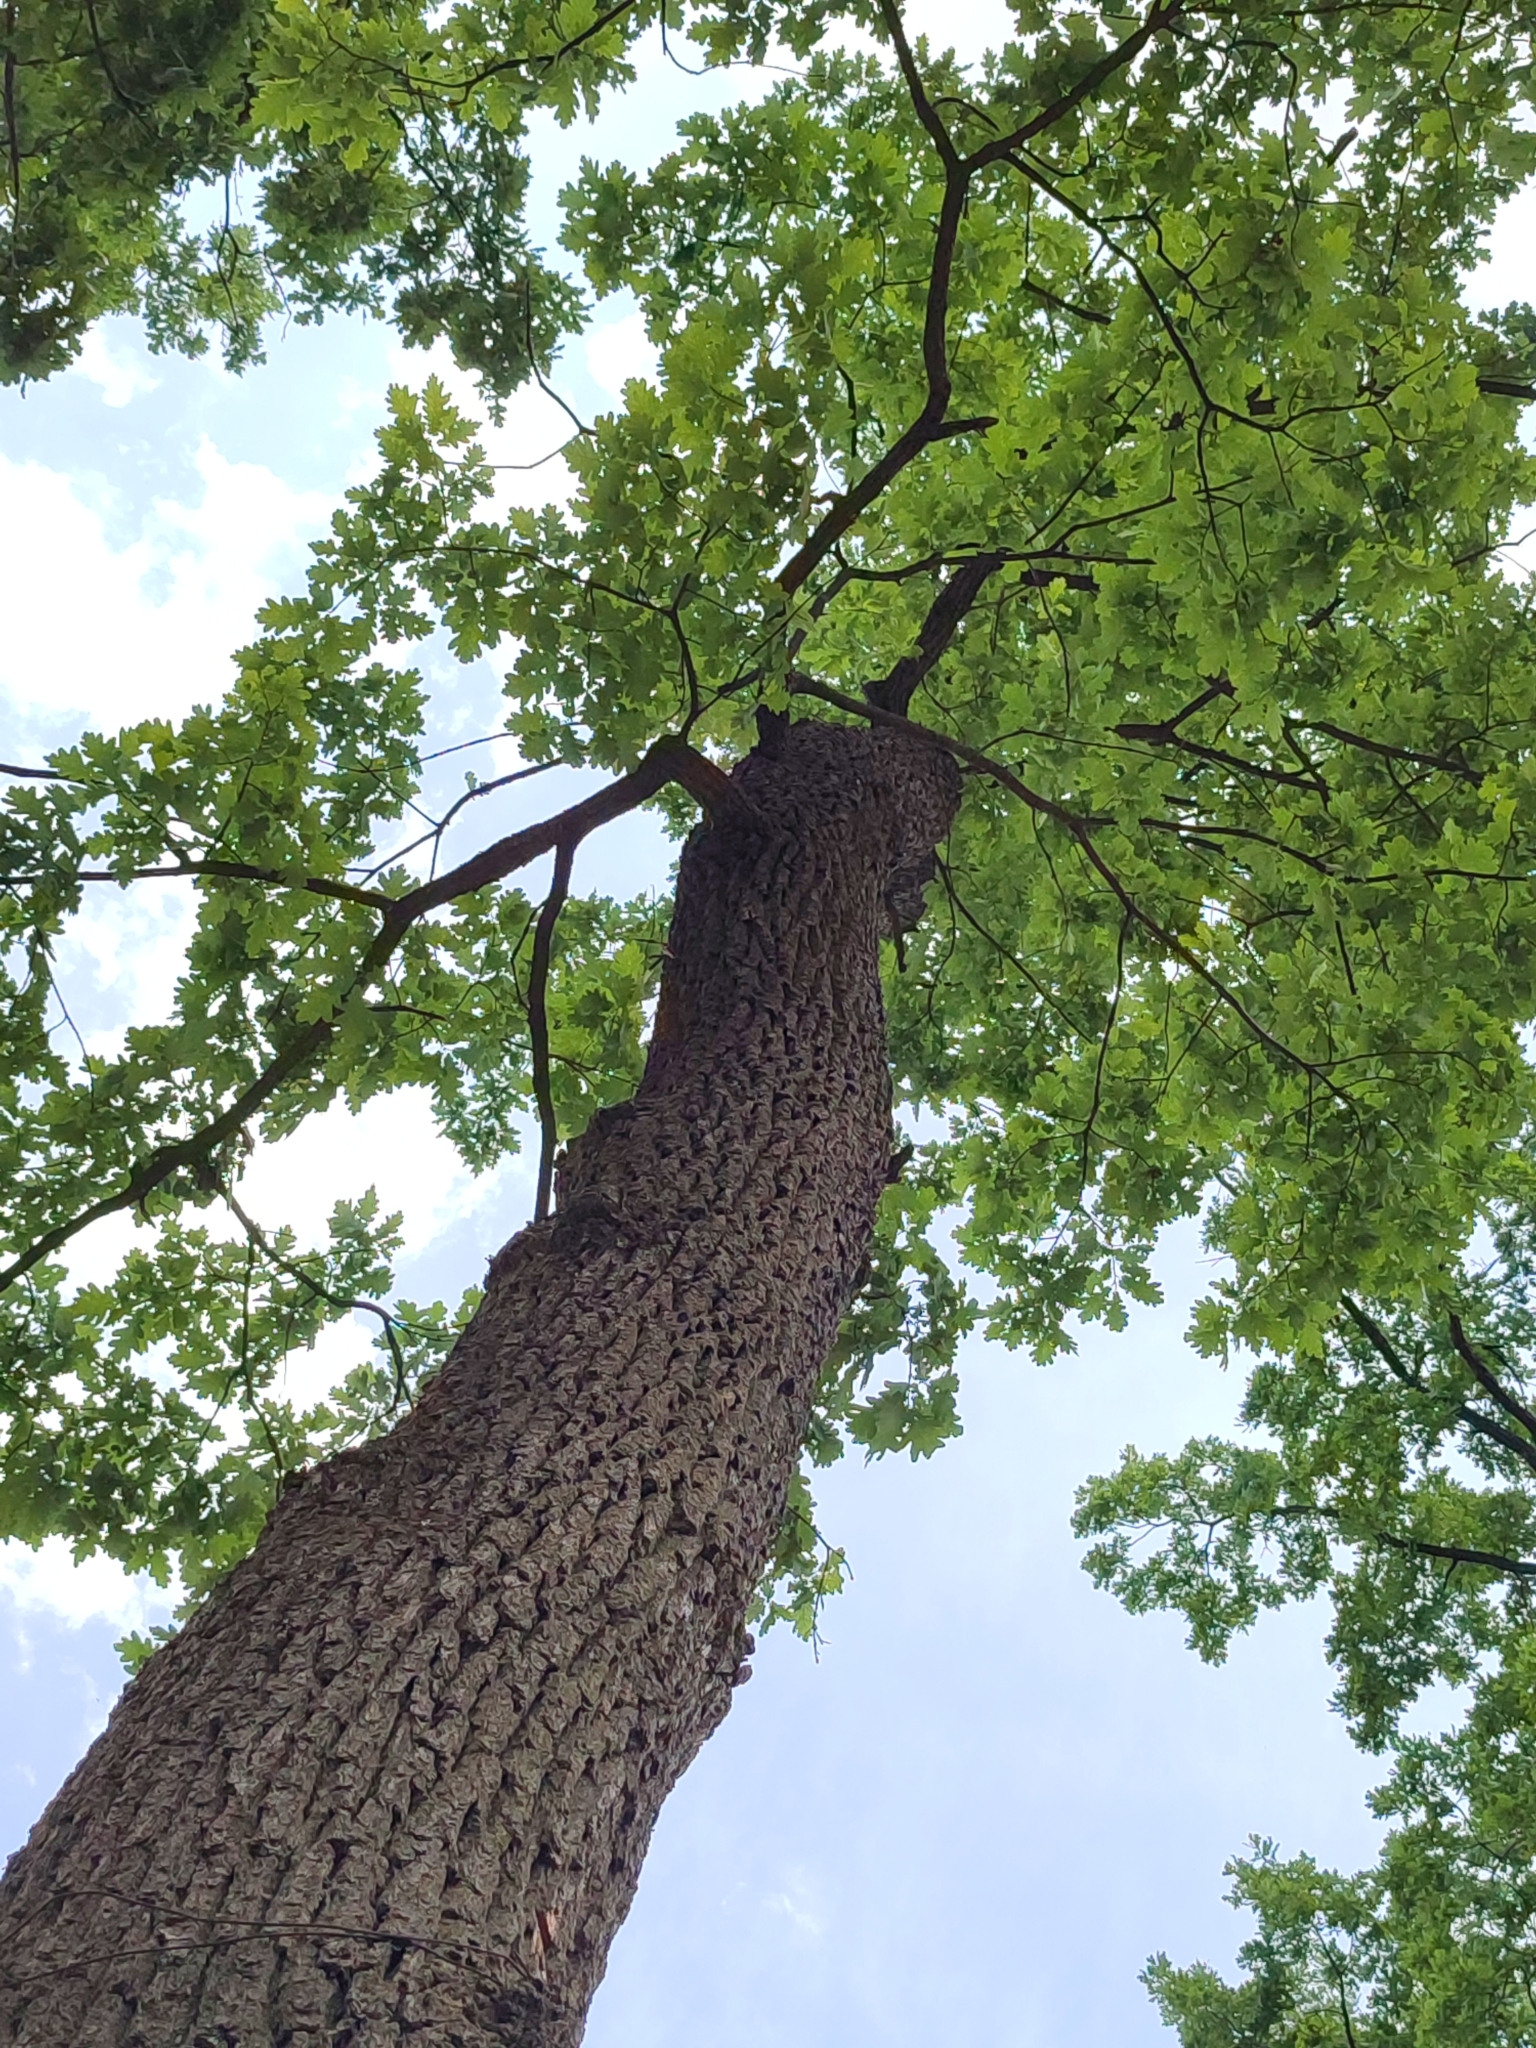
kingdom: Plantae
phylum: Tracheophyta
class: Magnoliopsida
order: Fagales
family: Fagaceae
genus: Quercus
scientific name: Quercus robur
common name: Pedunculate oak
